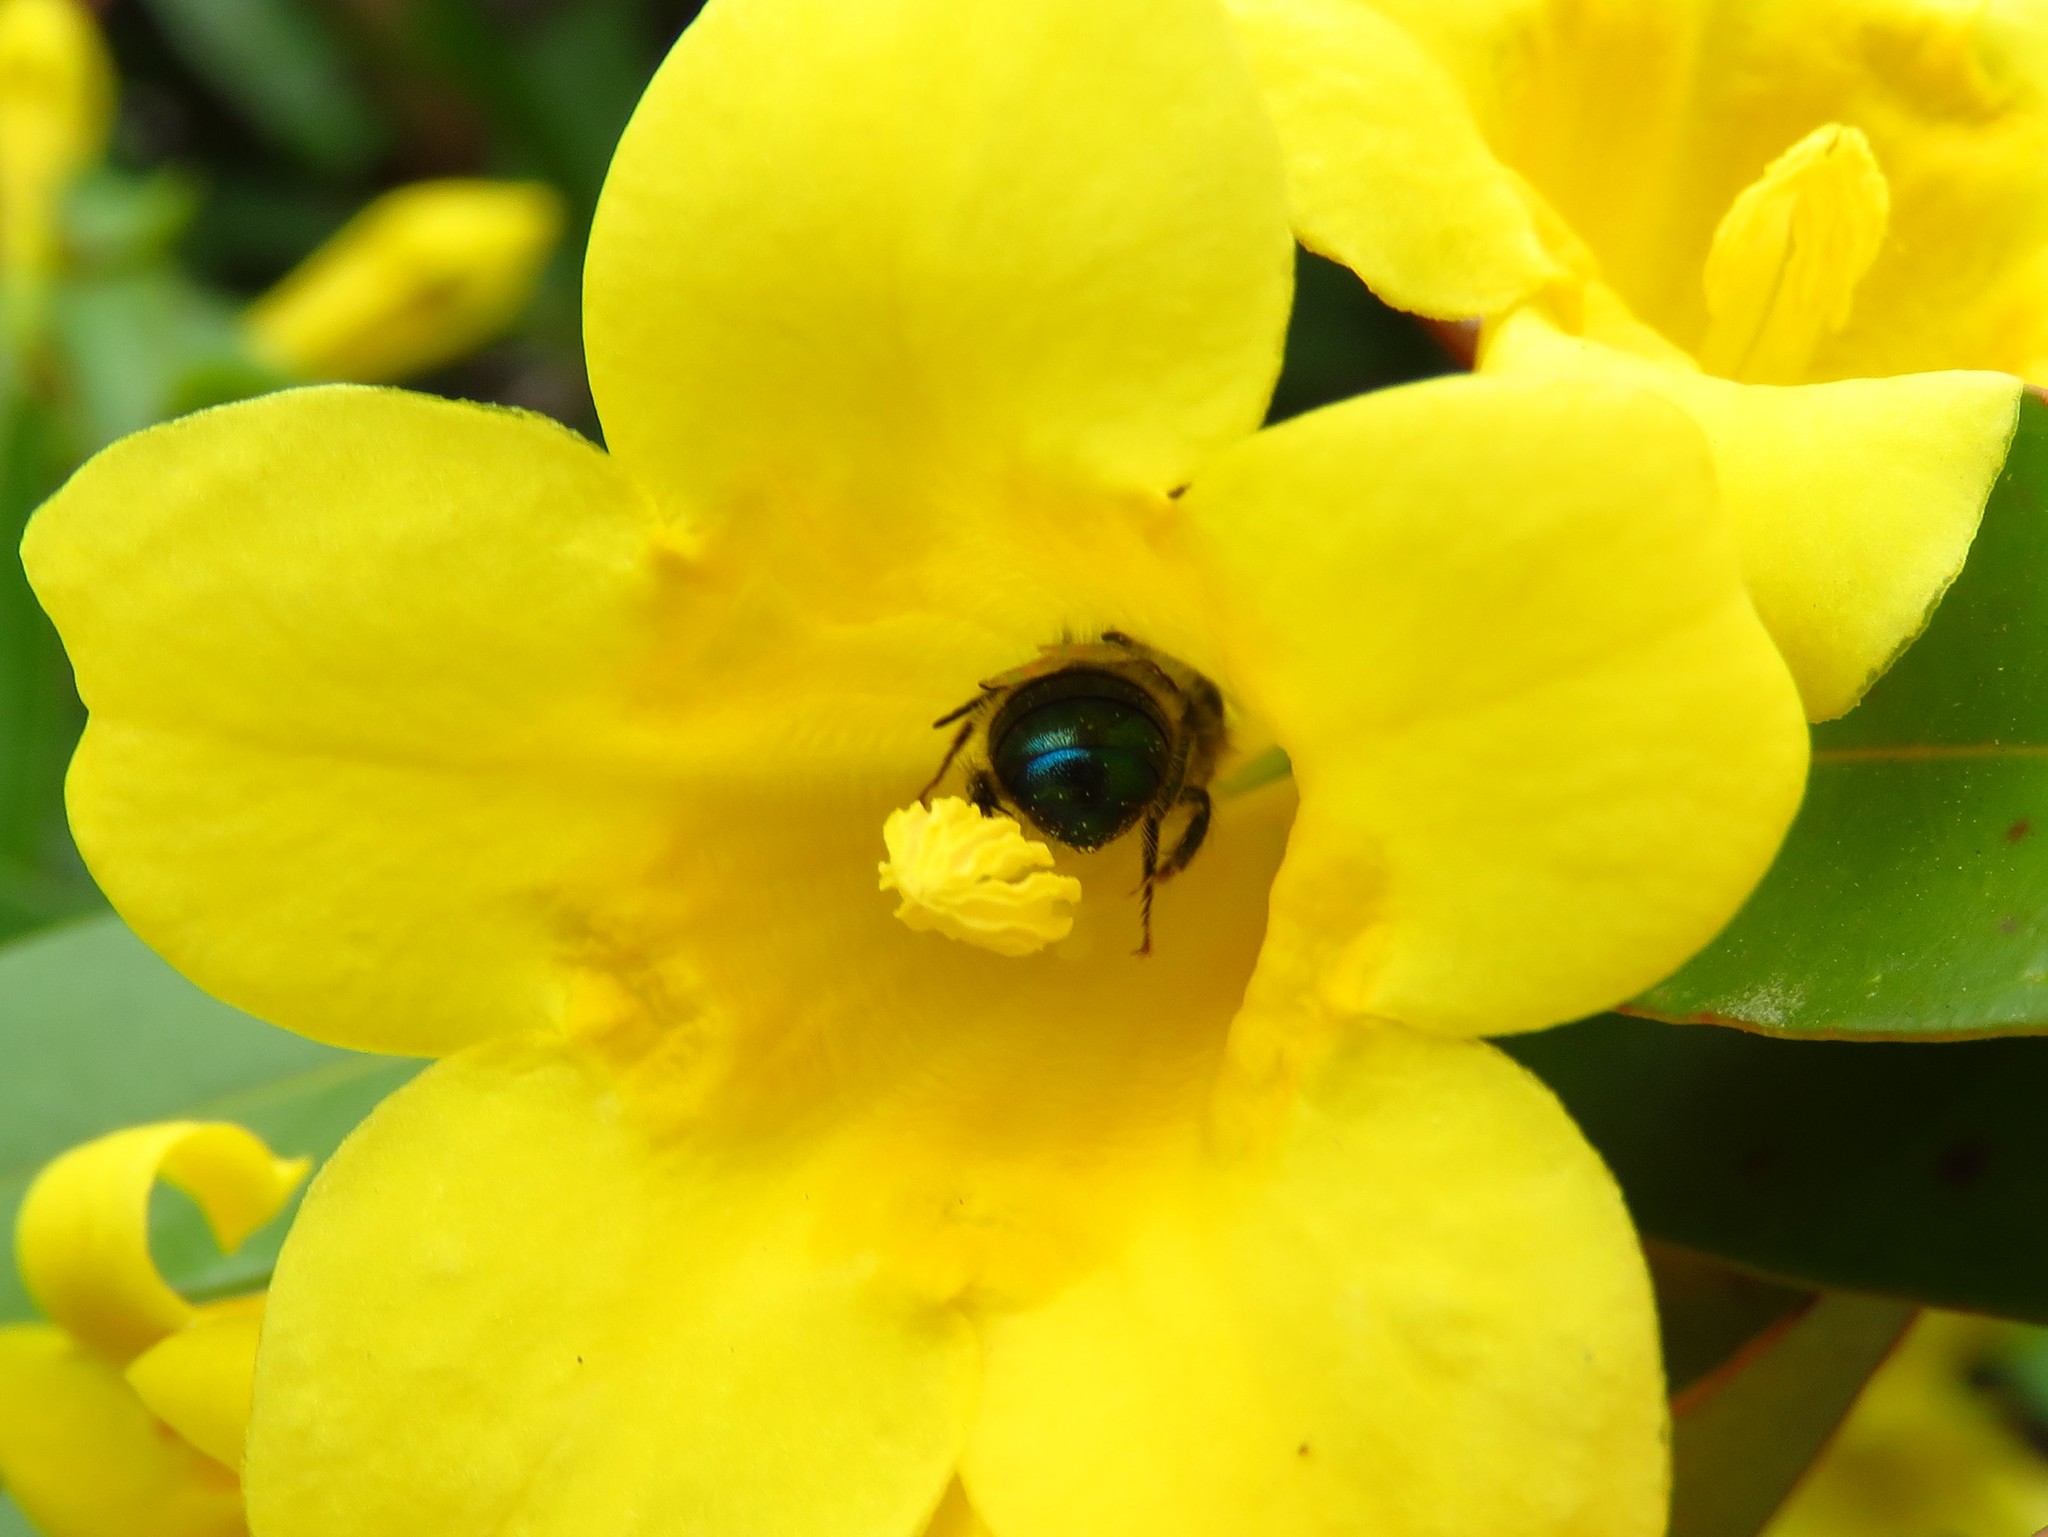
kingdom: Animalia
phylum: Arthropoda
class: Insecta
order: Hymenoptera
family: Megachilidae
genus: Osmia
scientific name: Osmia ribifloris
